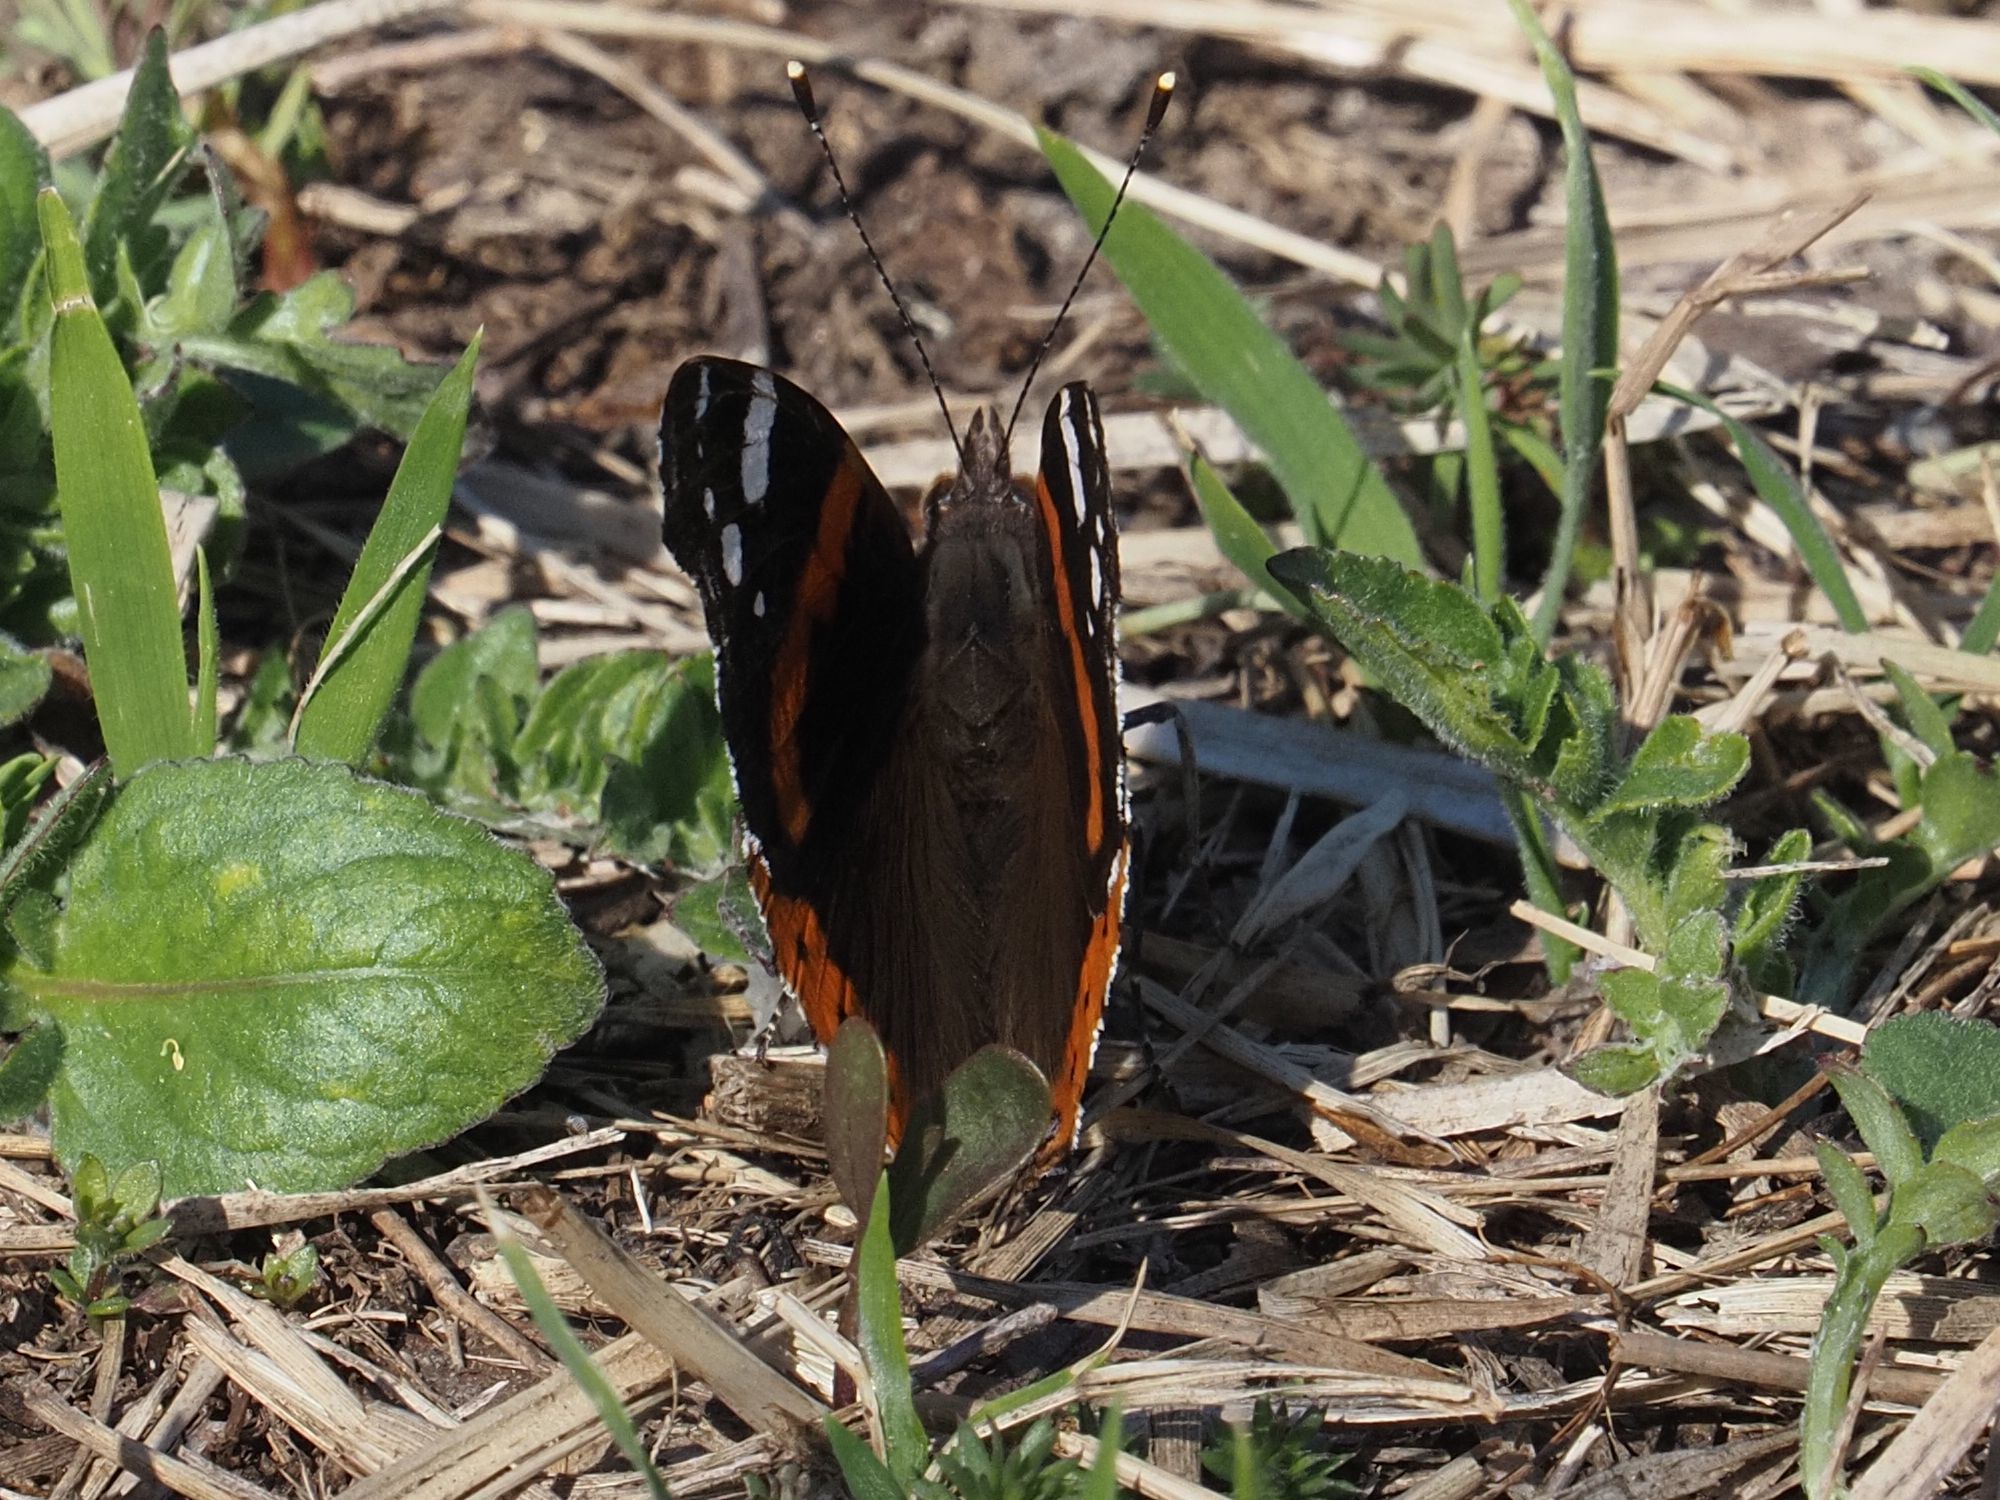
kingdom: Animalia
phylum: Arthropoda
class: Insecta
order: Lepidoptera
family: Nymphalidae
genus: Vanessa
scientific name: Vanessa atalanta
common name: Red admiral
